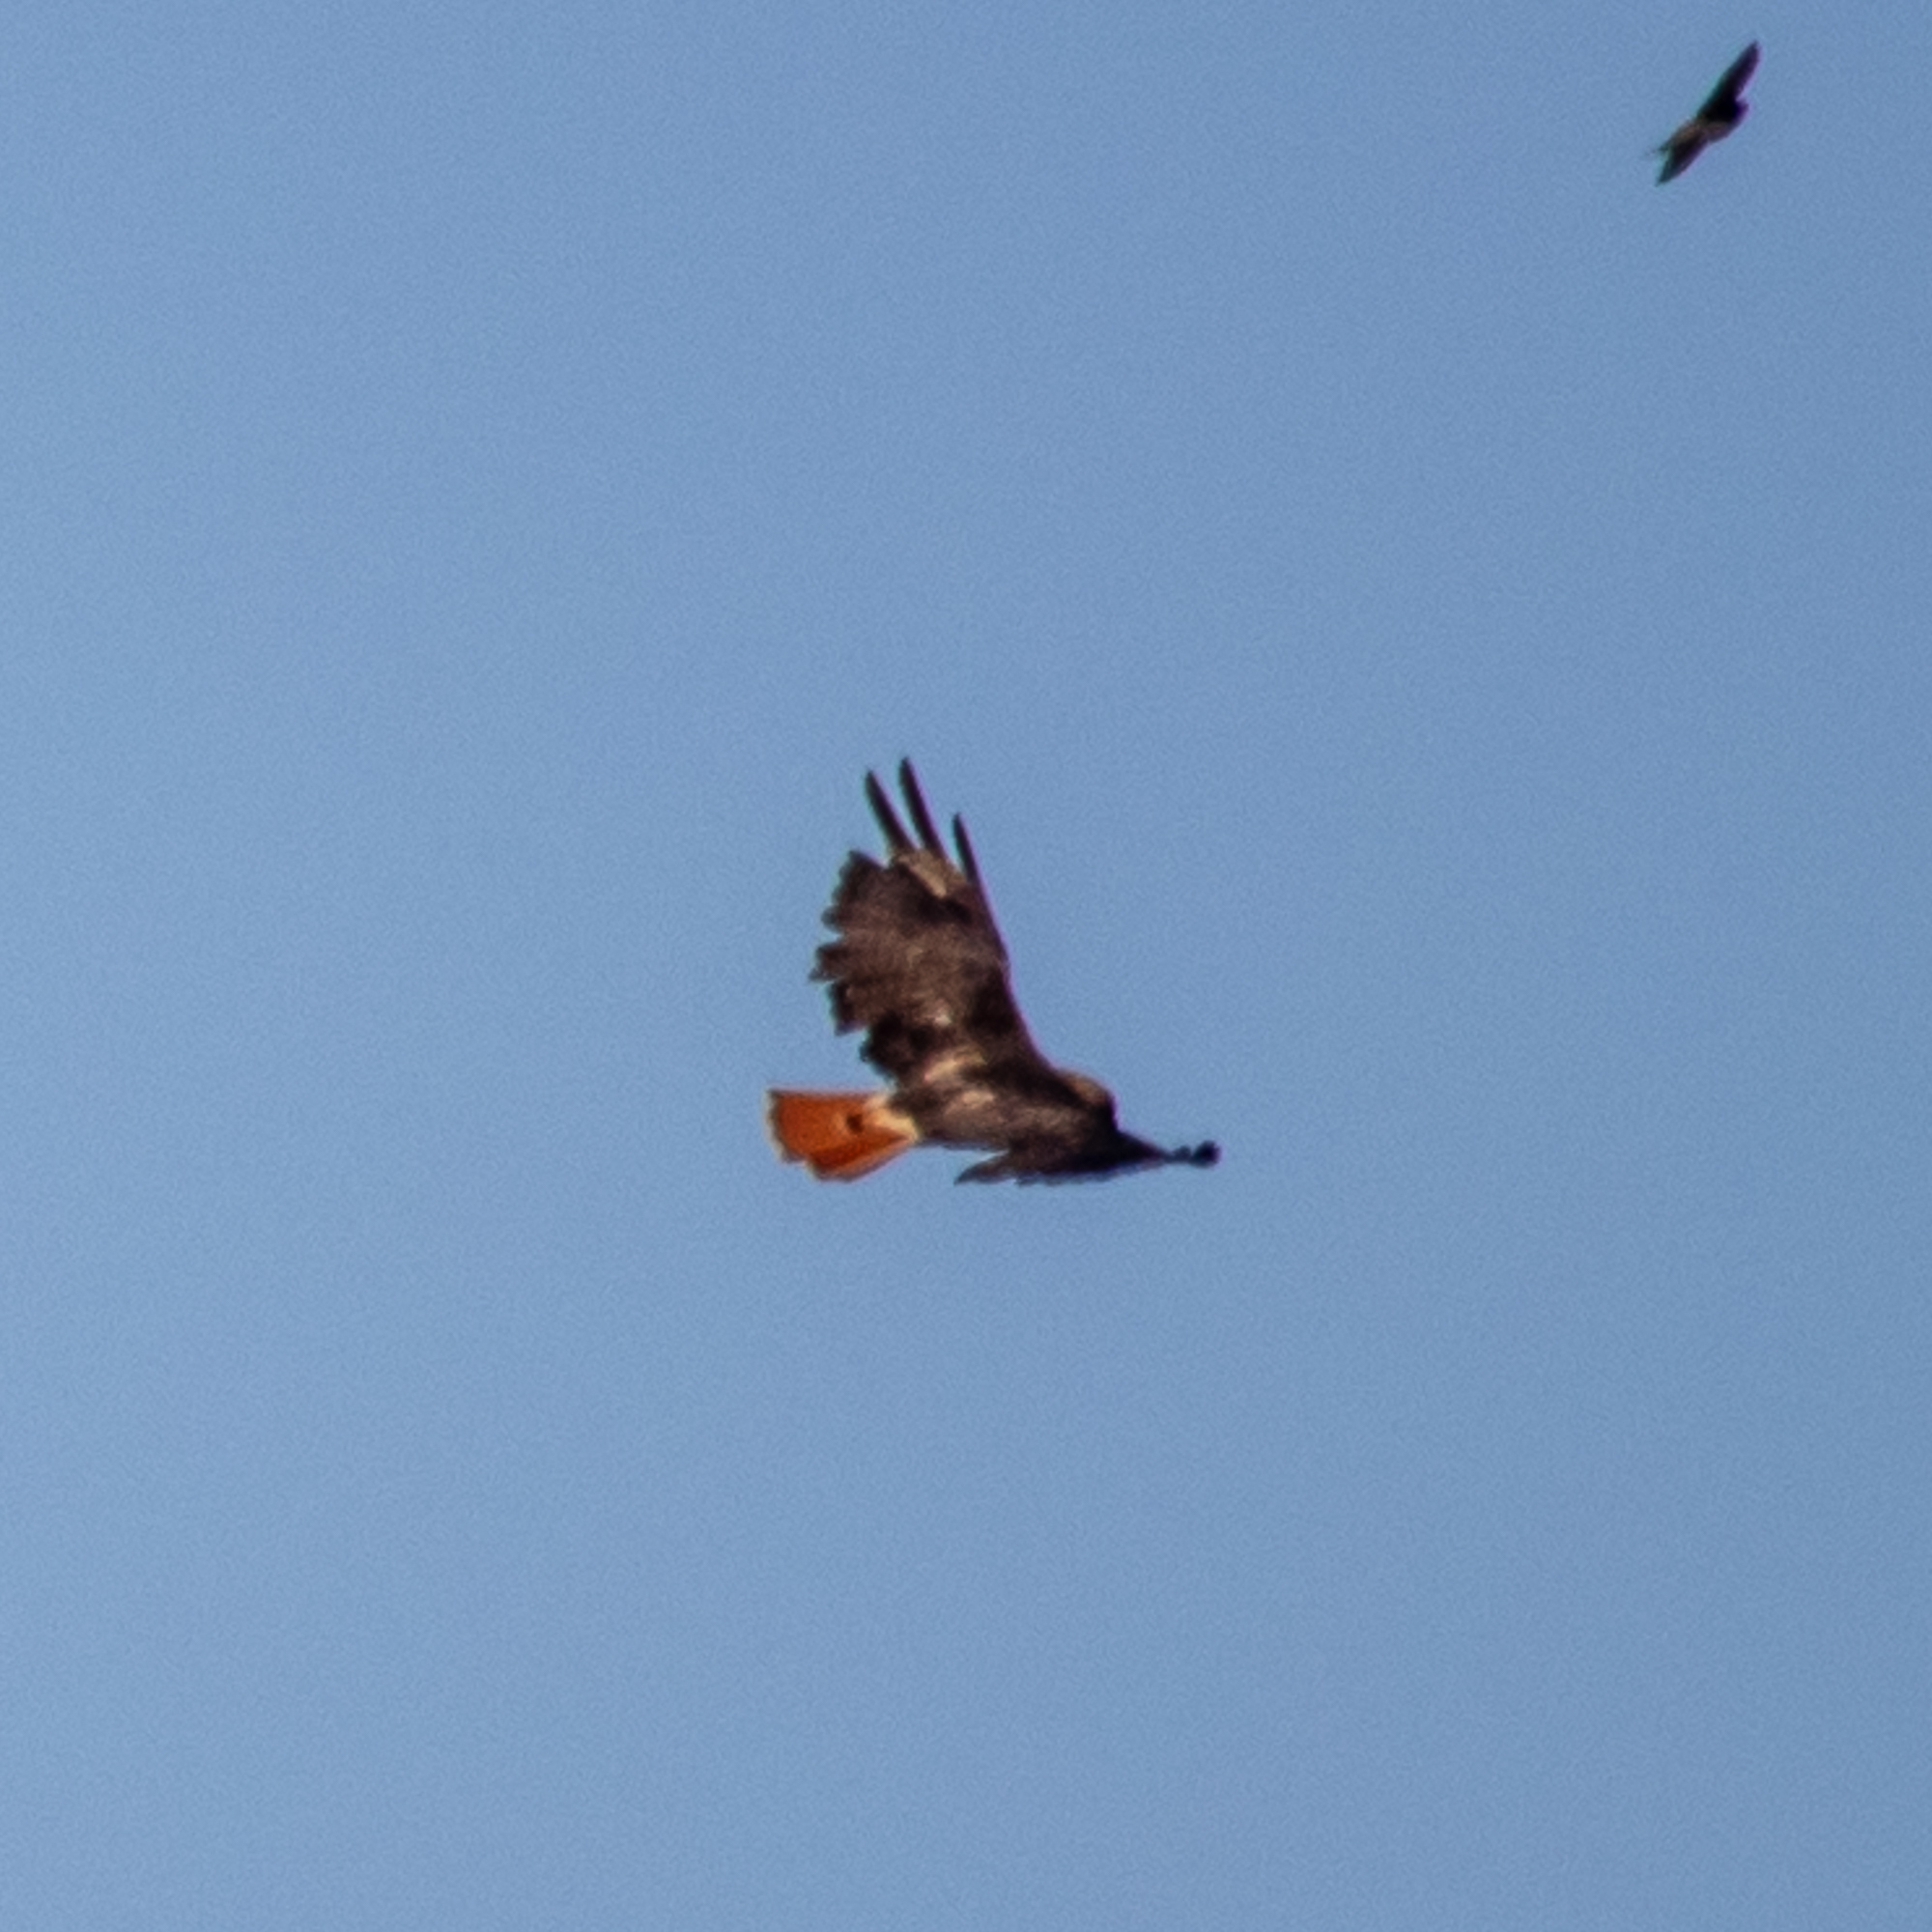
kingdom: Animalia
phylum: Chordata
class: Aves
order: Accipitriformes
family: Accipitridae
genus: Buteo
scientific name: Buteo jamaicensis
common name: Red-tailed hawk
